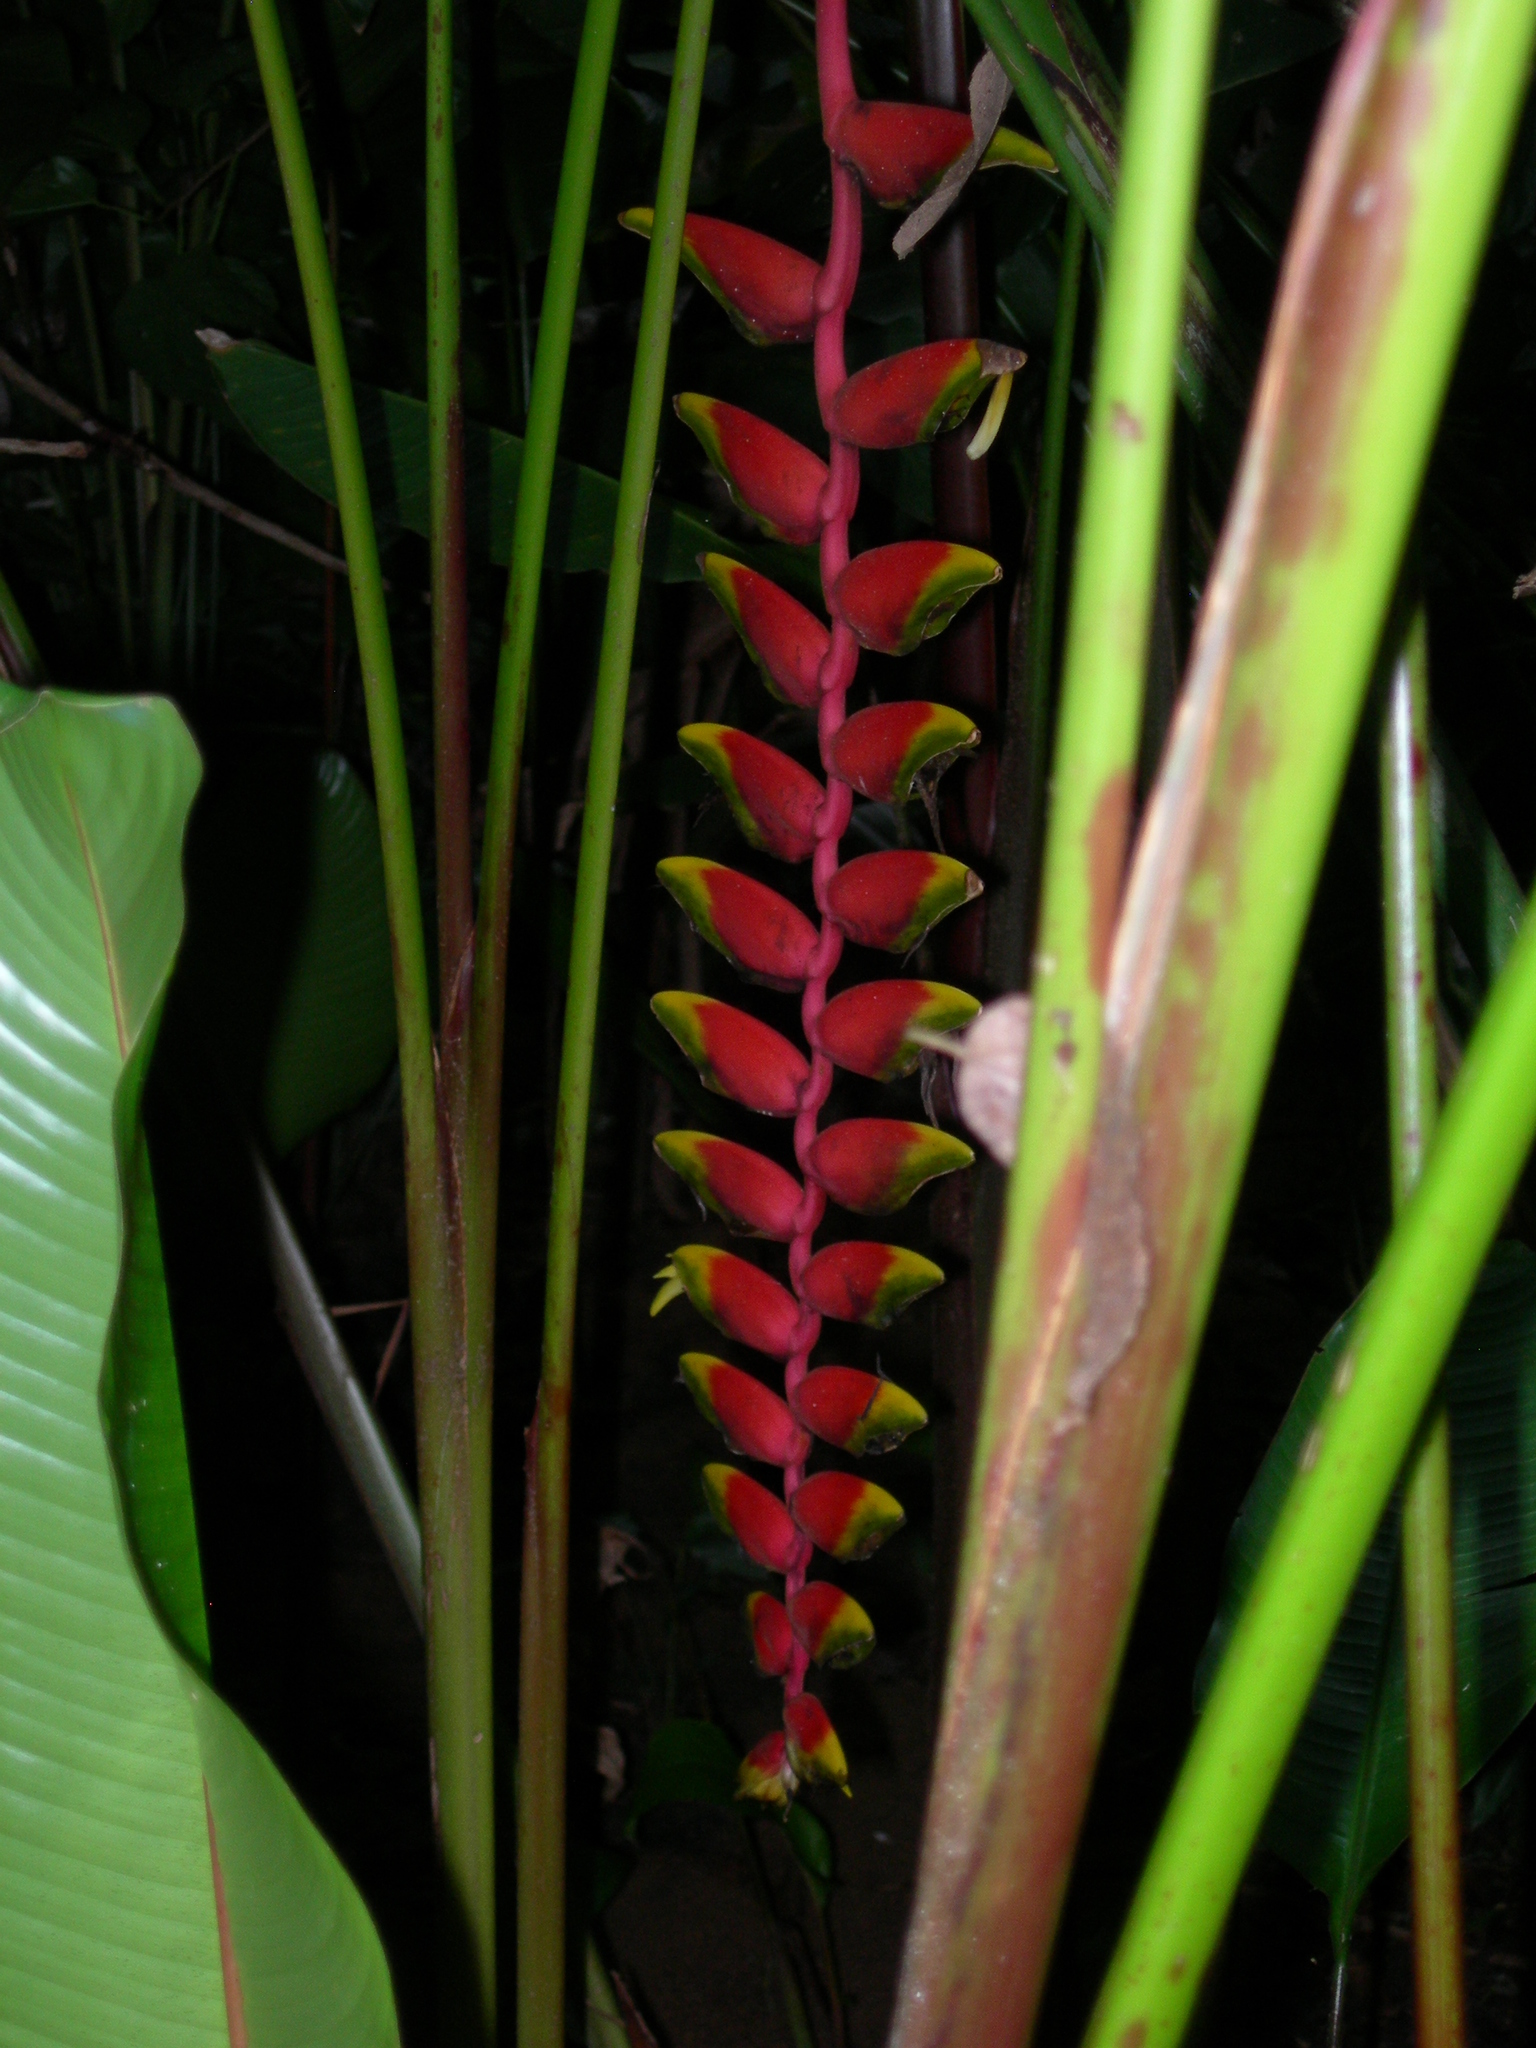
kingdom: Plantae
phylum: Tracheophyta
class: Liliopsida
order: Zingiberales
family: Heliconiaceae
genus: Heliconia
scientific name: Heliconia rostrata
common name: False bird of paradise
